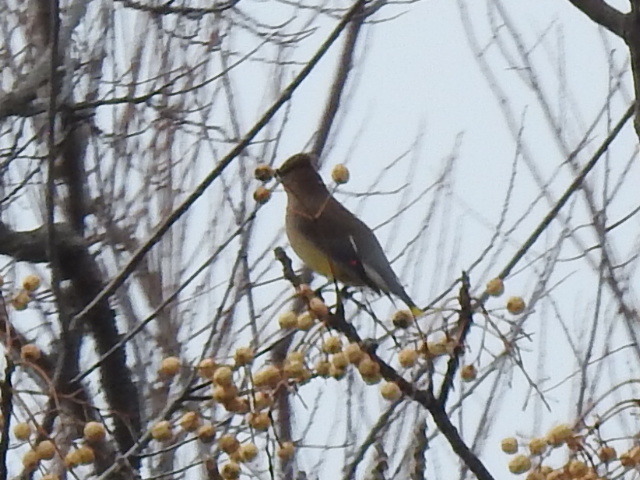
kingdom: Animalia
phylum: Chordata
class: Aves
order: Passeriformes
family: Bombycillidae
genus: Bombycilla
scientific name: Bombycilla cedrorum
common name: Cedar waxwing
